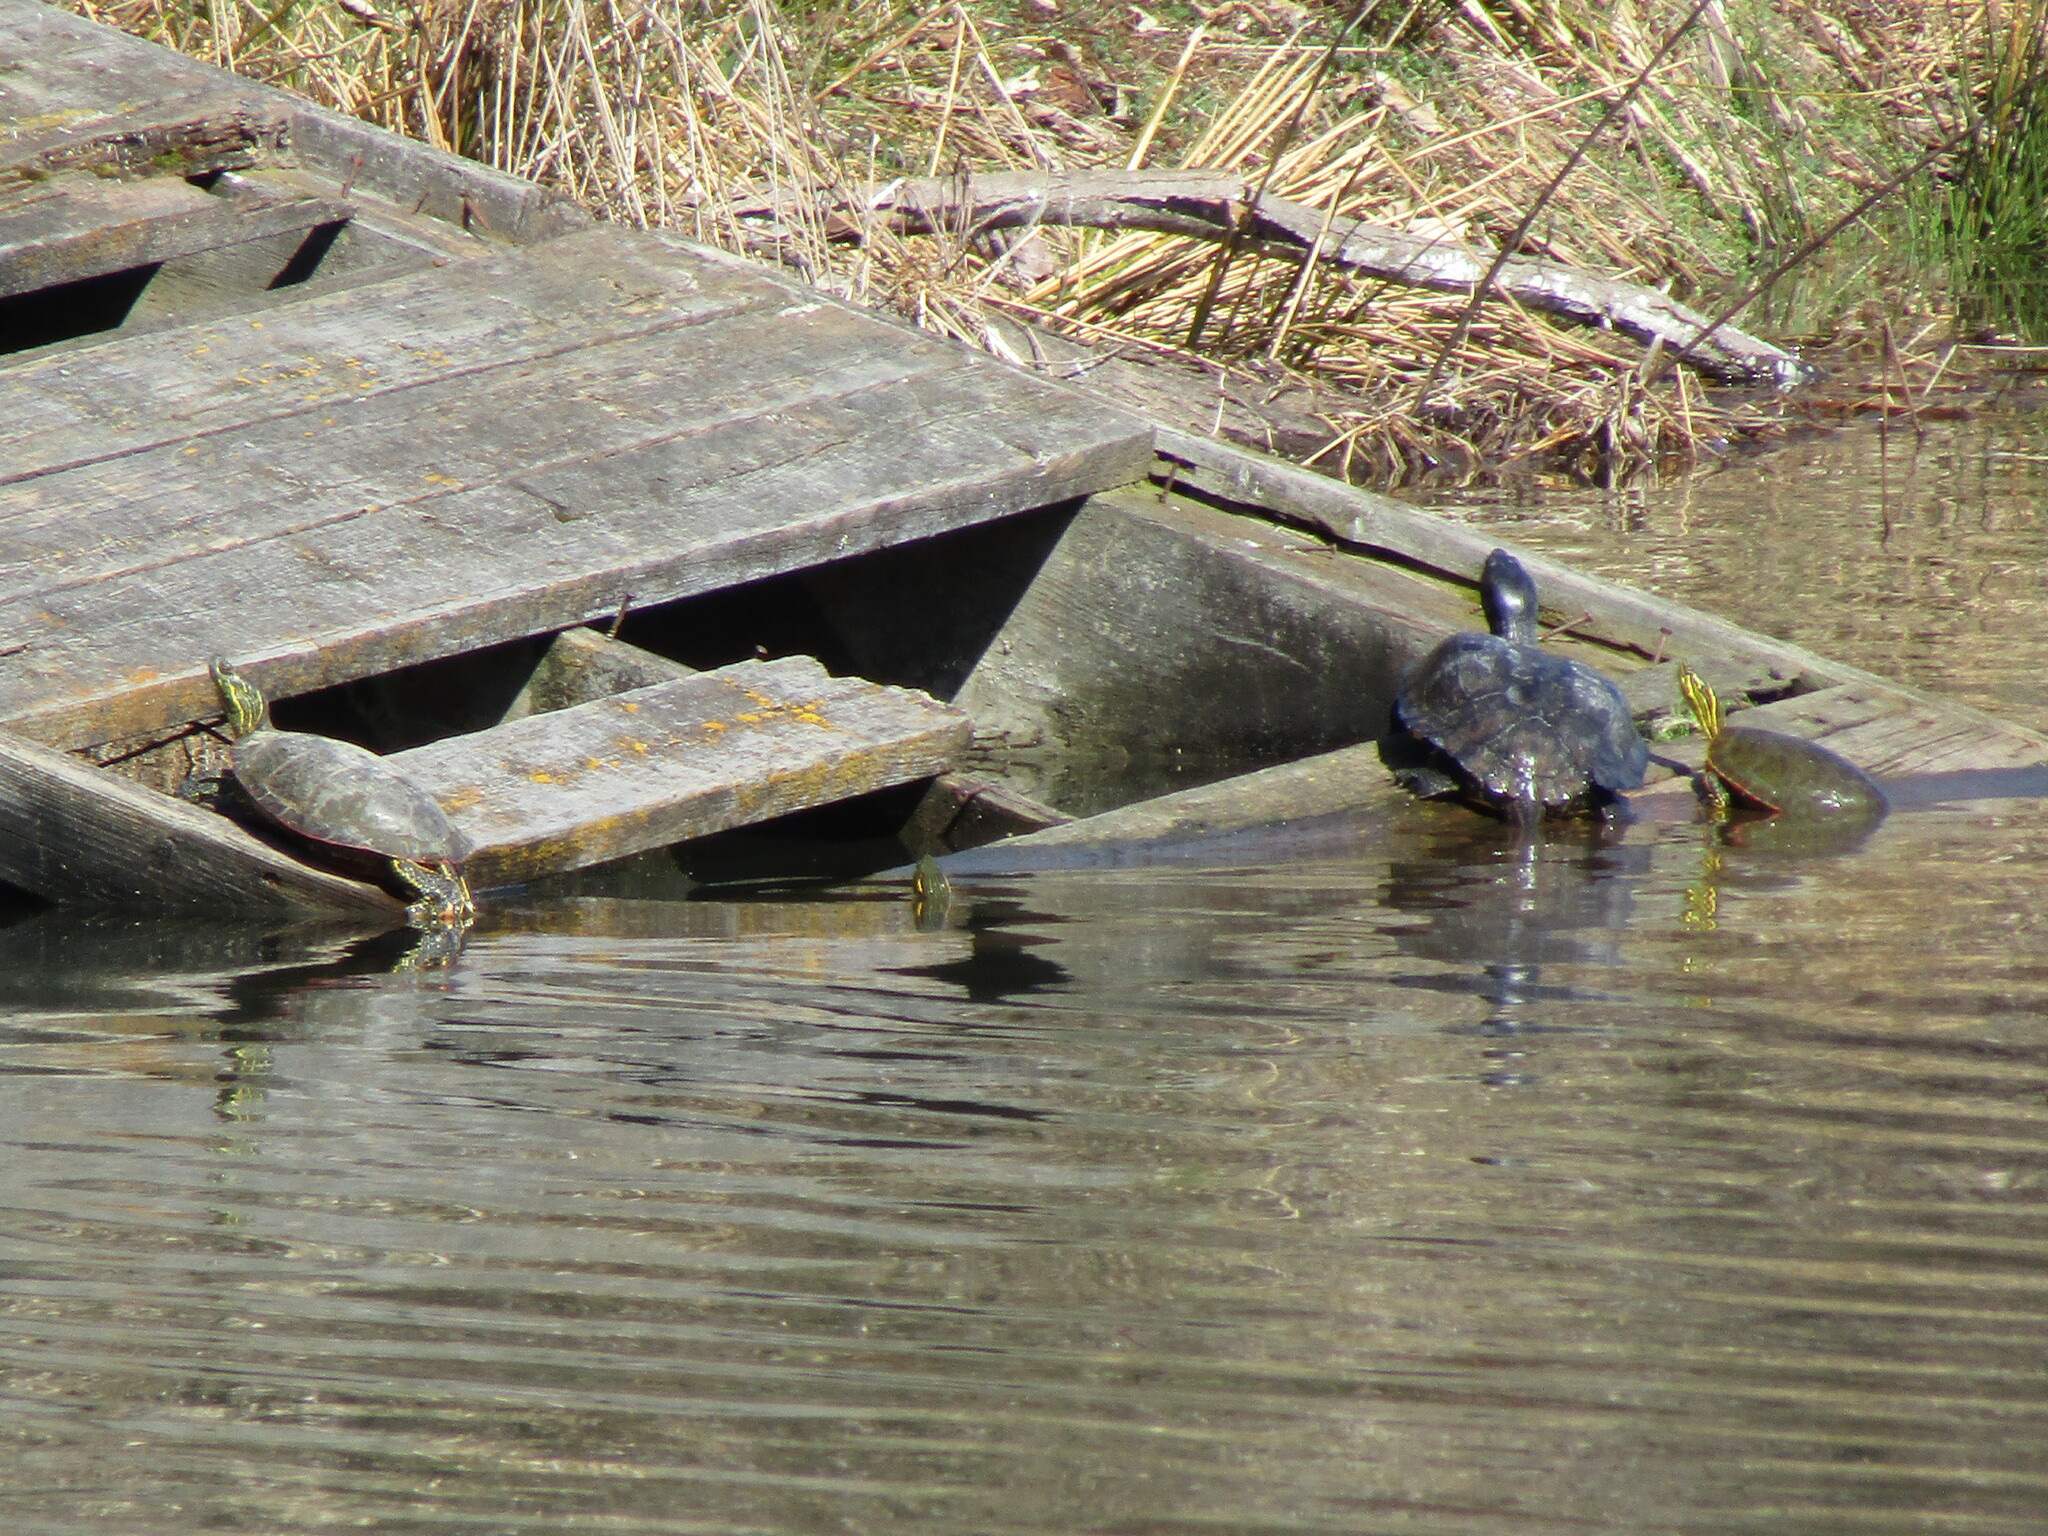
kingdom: Animalia
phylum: Chordata
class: Testudines
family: Emydidae
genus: Chrysemys
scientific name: Chrysemys picta
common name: Painted turtle
